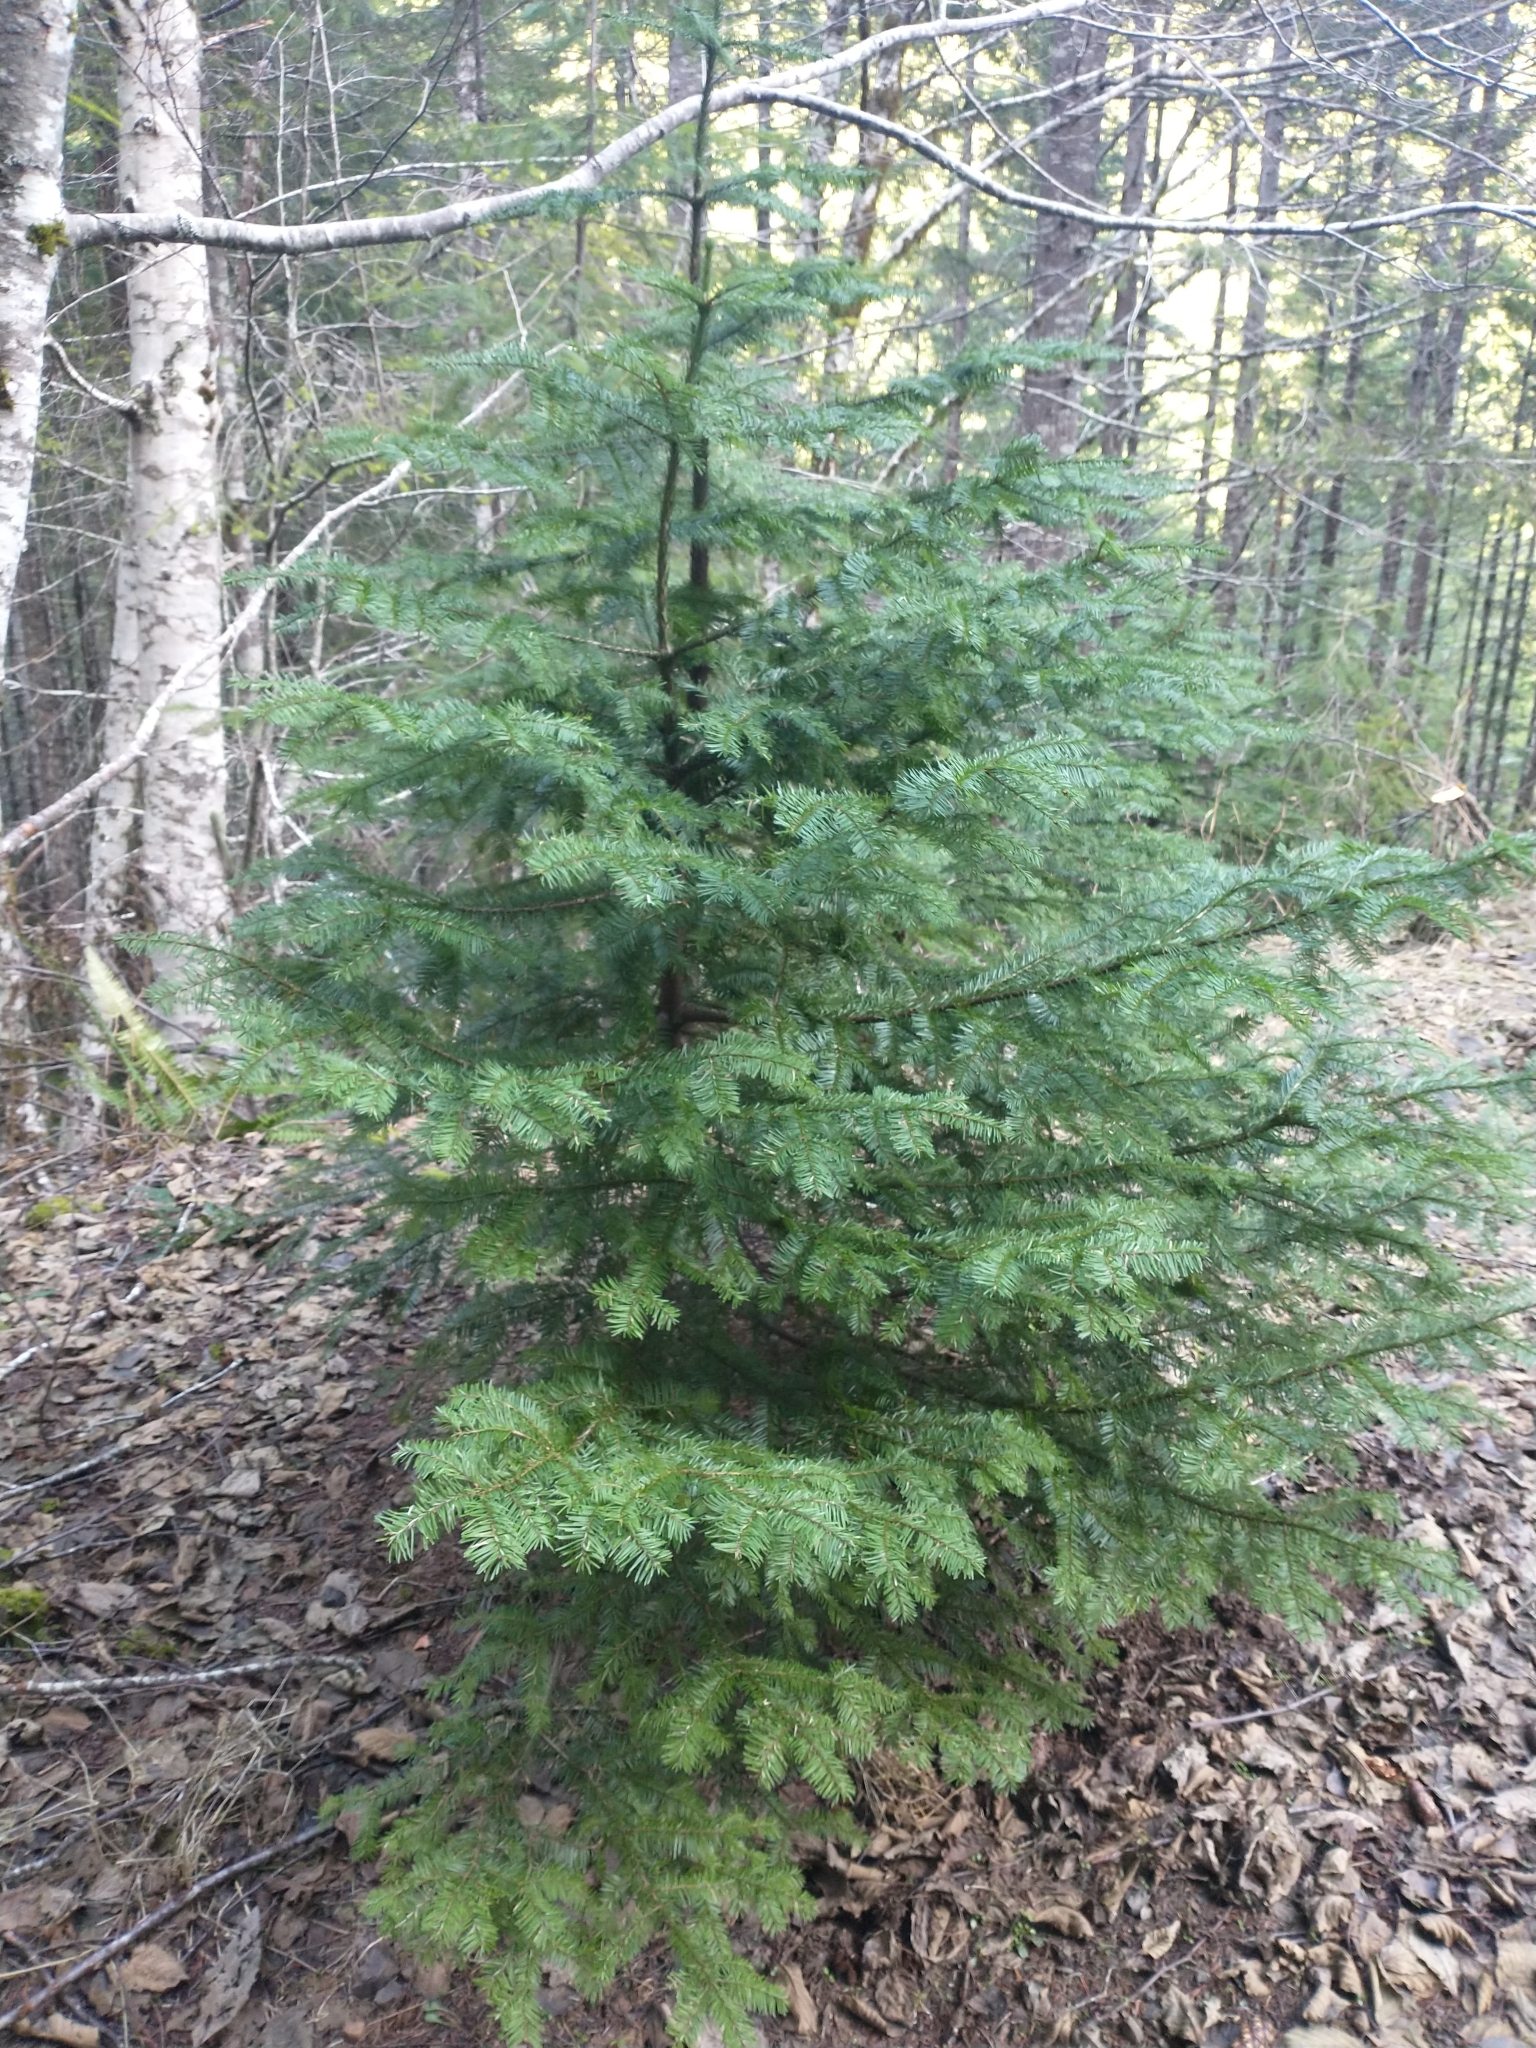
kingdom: Plantae
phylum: Tracheophyta
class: Pinopsida
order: Pinales
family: Pinaceae
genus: Abies
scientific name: Abies procera
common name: Noble fir
